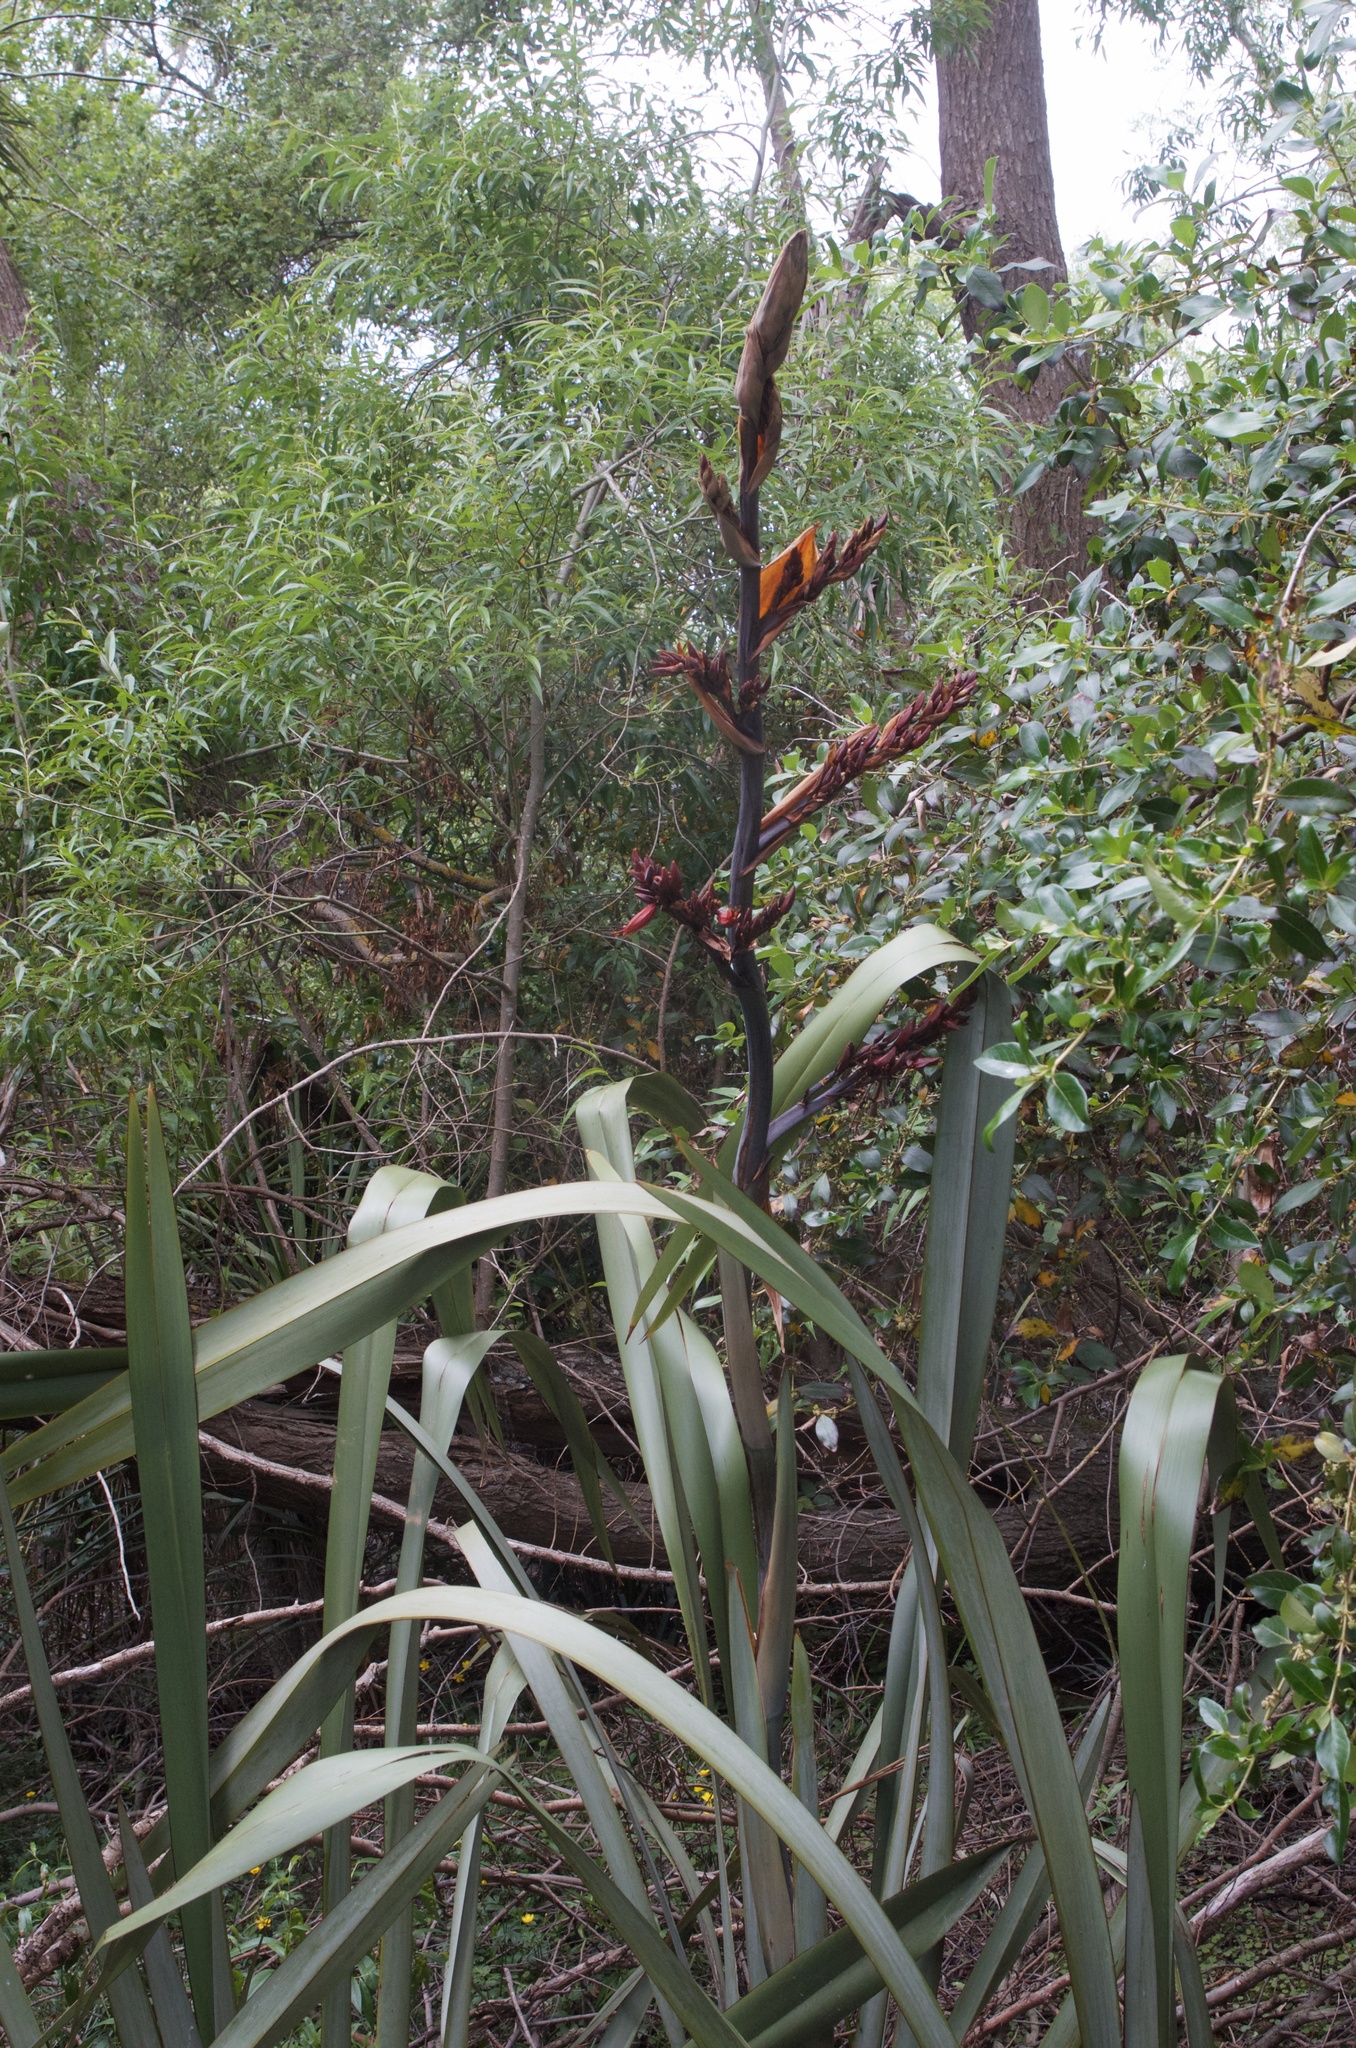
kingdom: Plantae
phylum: Tracheophyta
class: Liliopsida
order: Asparagales
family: Asphodelaceae
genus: Phormium
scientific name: Phormium tenax
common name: New zealand flax
